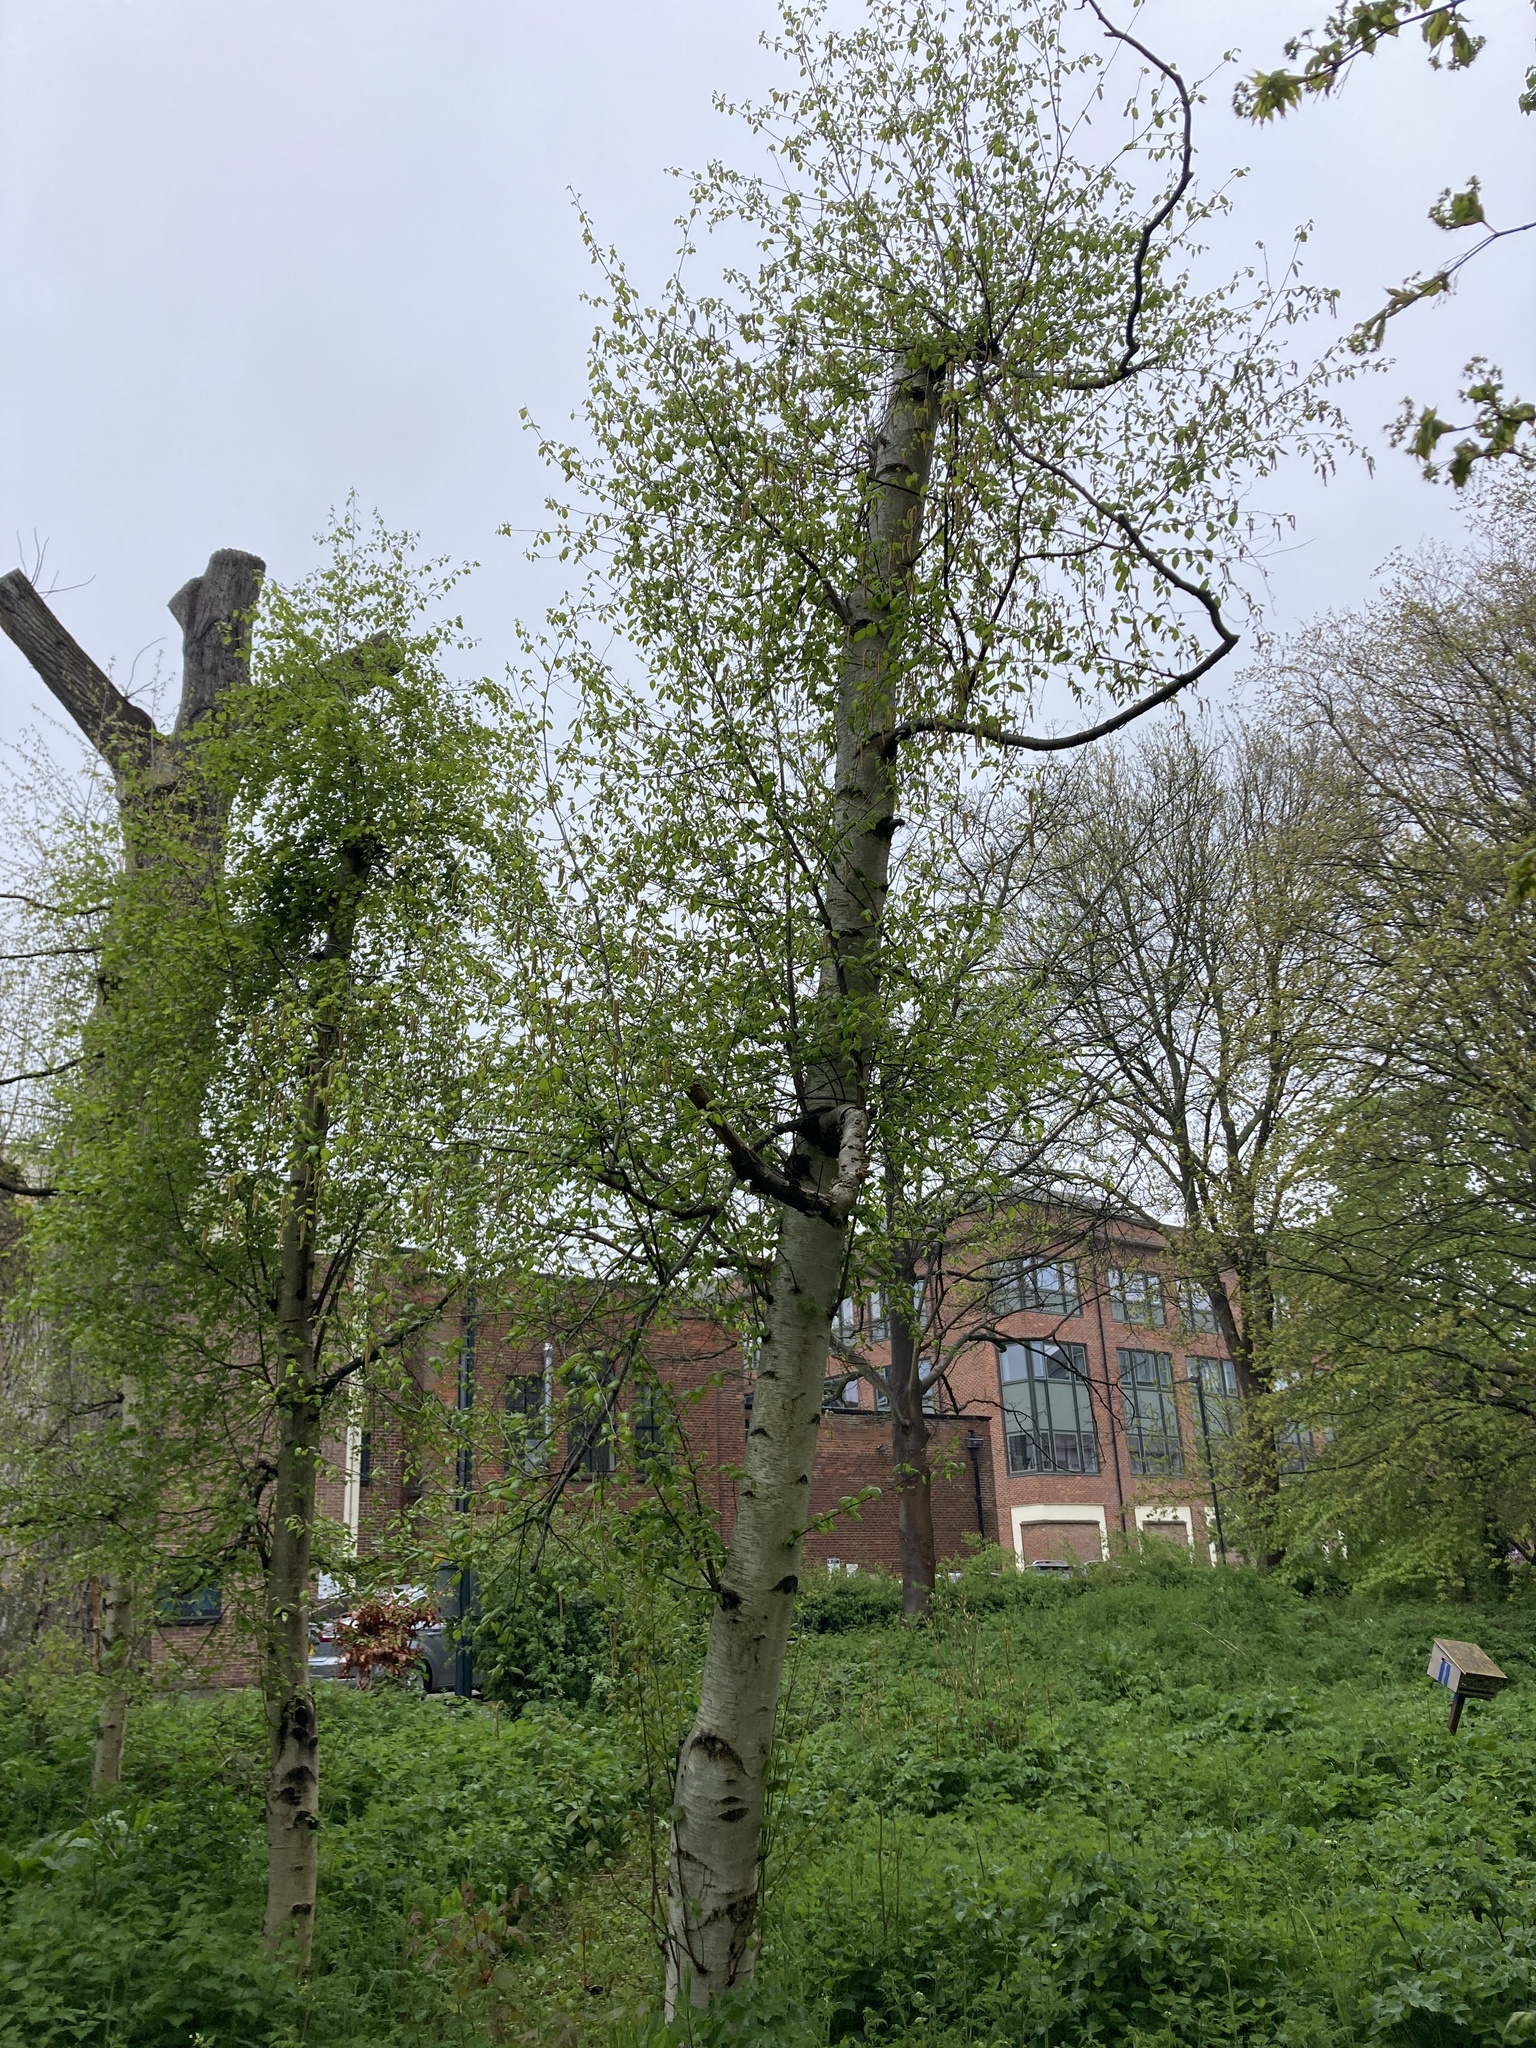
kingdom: Plantae
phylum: Tracheophyta
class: Magnoliopsida
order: Fagales
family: Betulaceae
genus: Betula
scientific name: Betula pendula
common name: Silver birch
